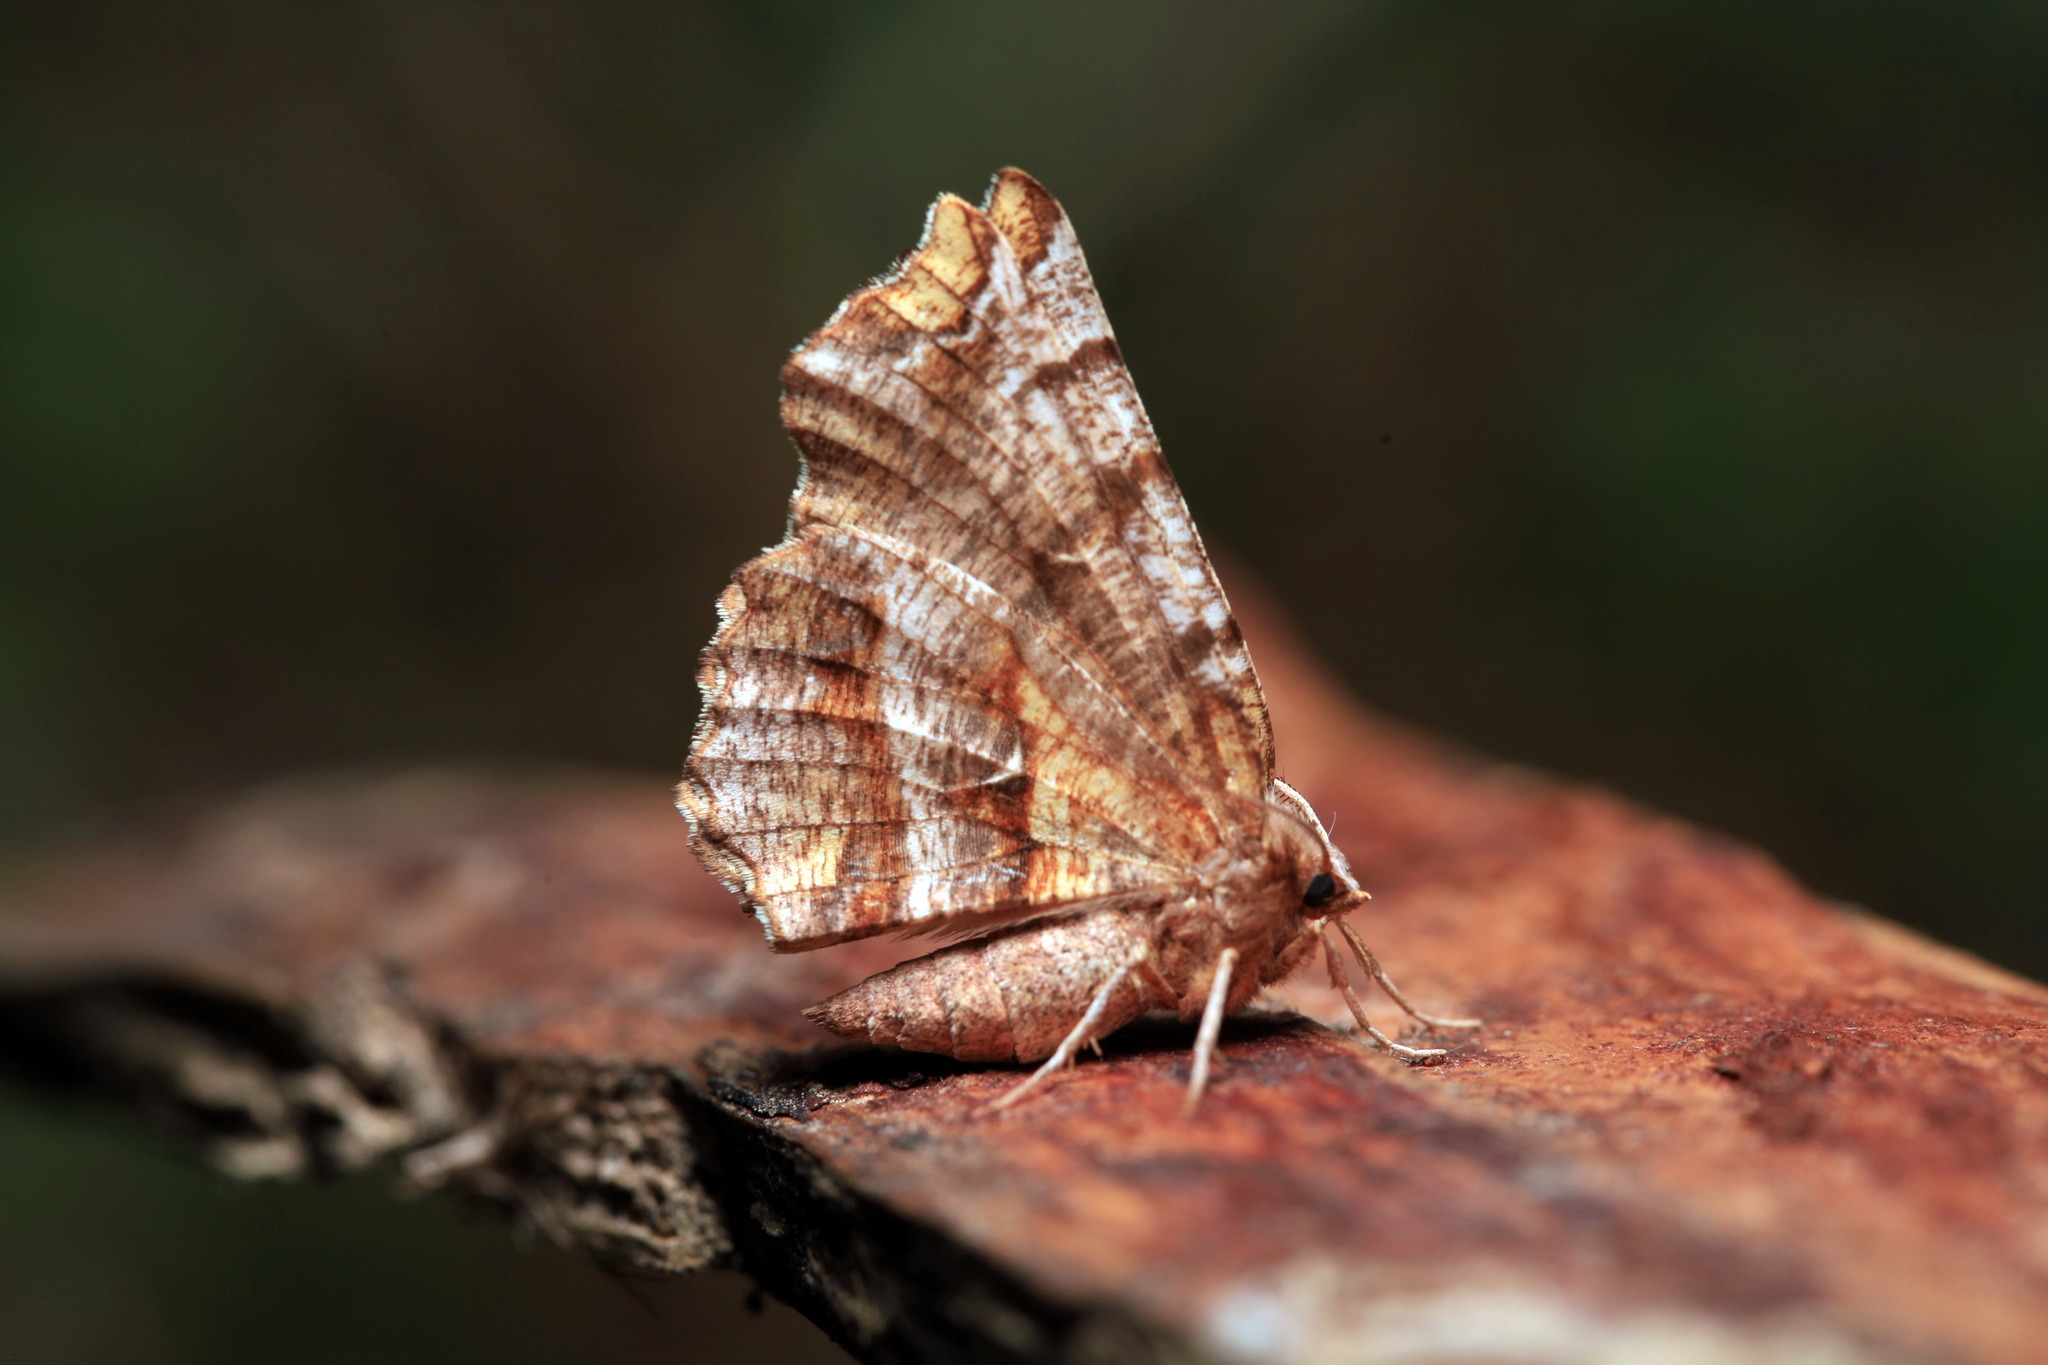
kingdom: Animalia
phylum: Arthropoda
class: Insecta
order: Lepidoptera
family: Geometridae
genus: Selenia
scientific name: Selenia dentaria
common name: Early thorn
